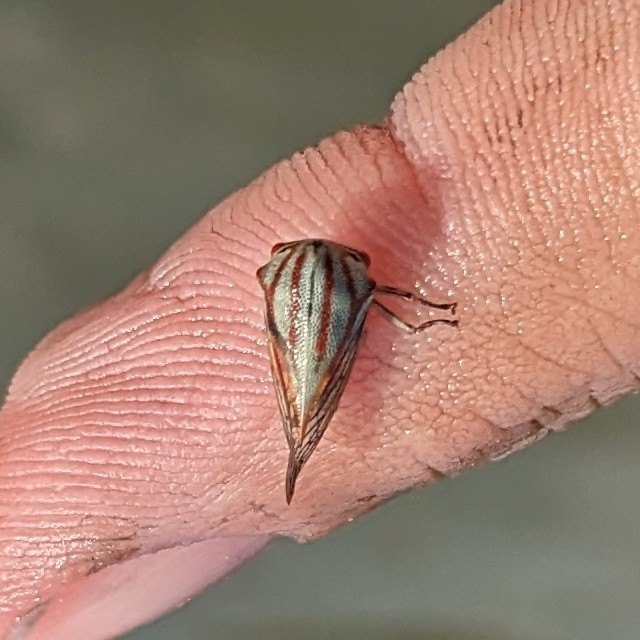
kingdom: Animalia
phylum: Arthropoda
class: Insecta
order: Hemiptera
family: Membracidae
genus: Platycotis
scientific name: Platycotis vittatus
